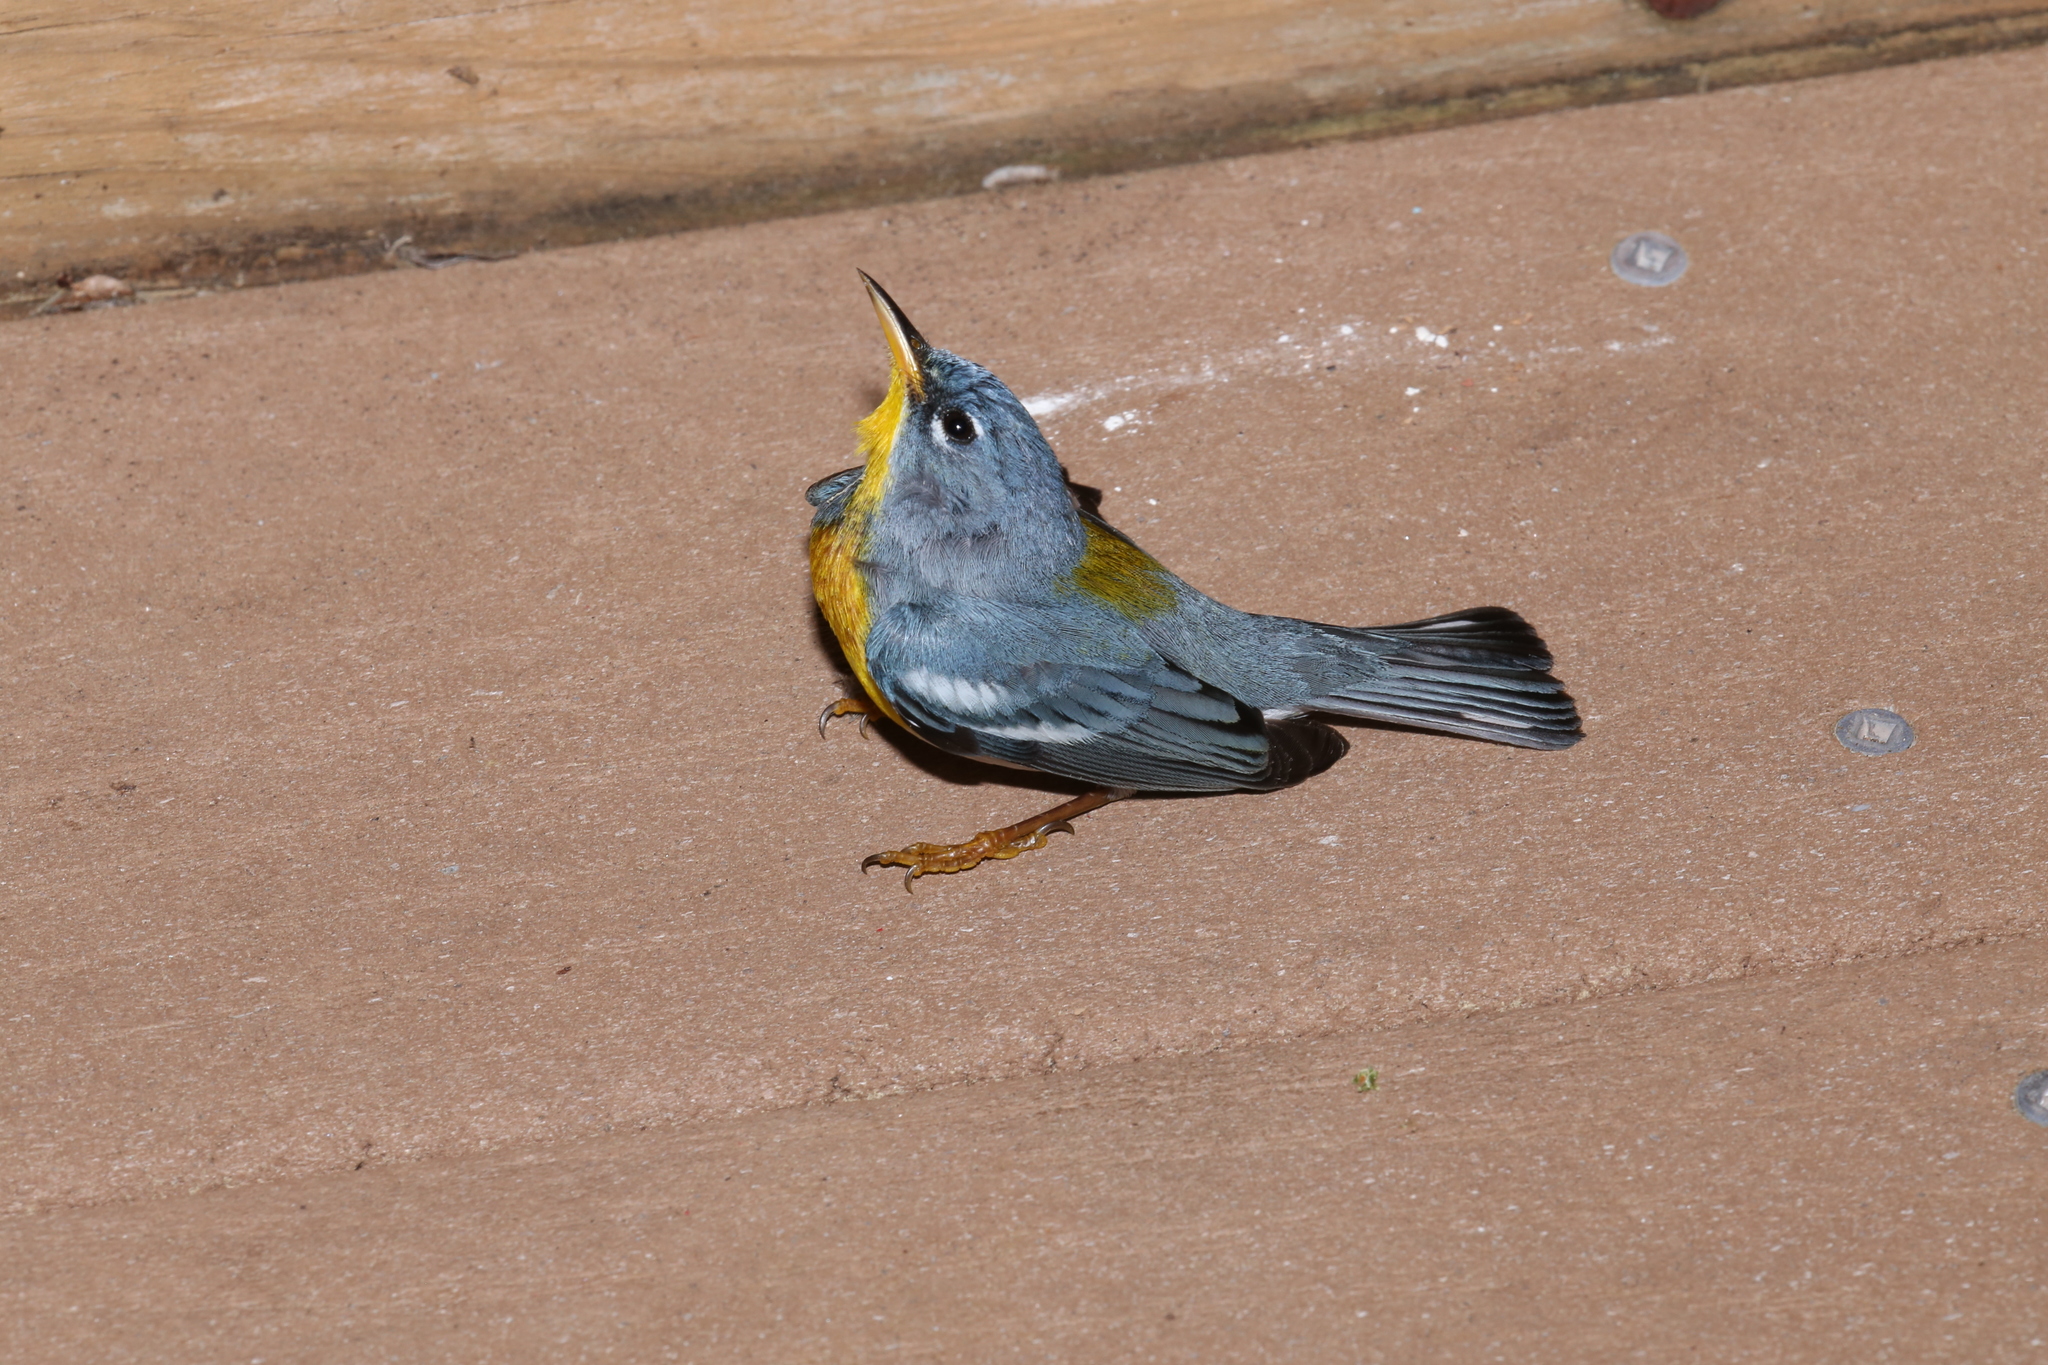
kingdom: Animalia
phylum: Chordata
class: Aves
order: Passeriformes
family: Parulidae
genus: Setophaga
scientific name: Setophaga americana
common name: Northern parula
